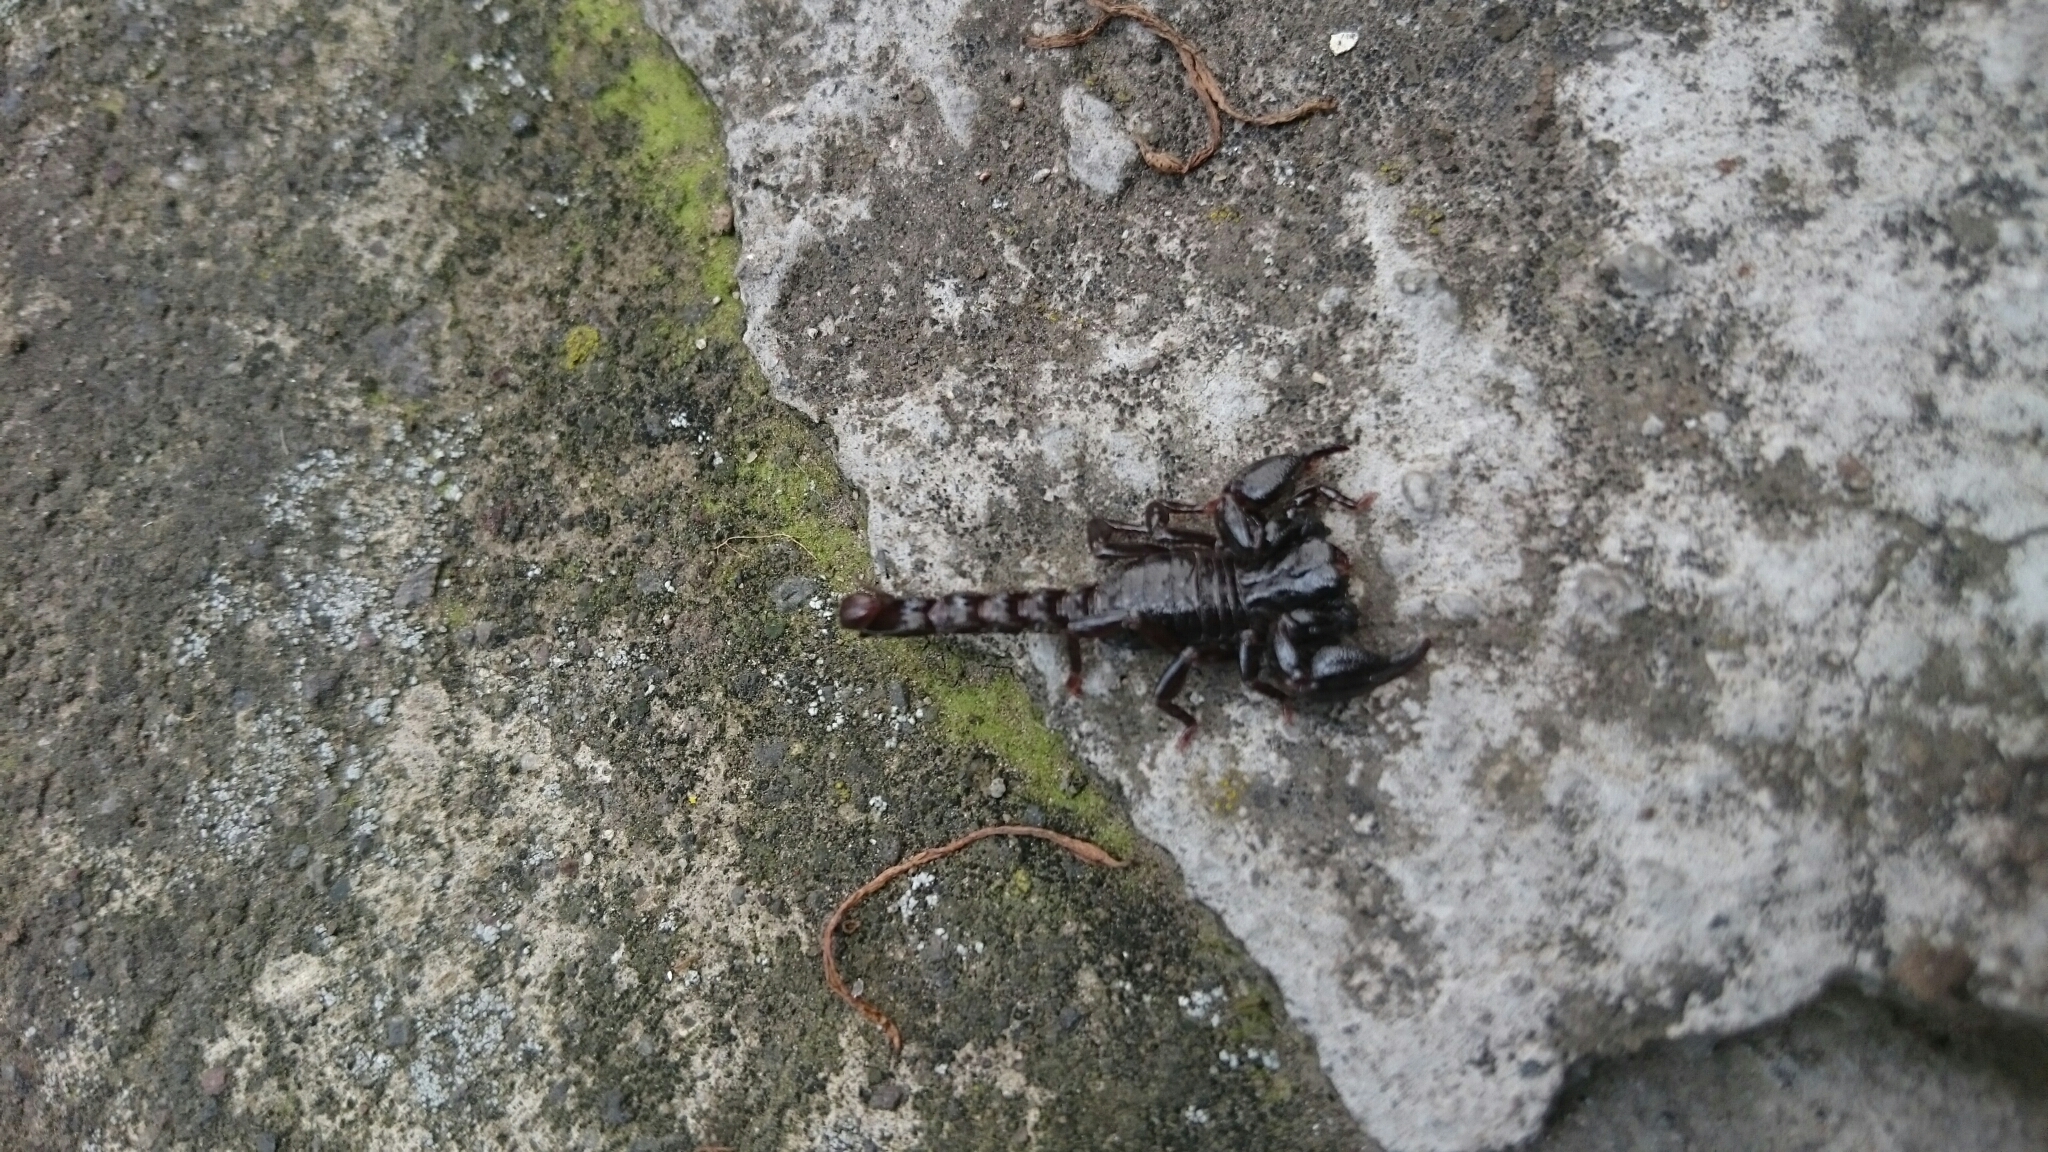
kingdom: Animalia
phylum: Arthropoda
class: Arachnida
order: Scorpiones
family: Chactidae
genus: Teuthraustes
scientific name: Teuthraustes atramentarius
